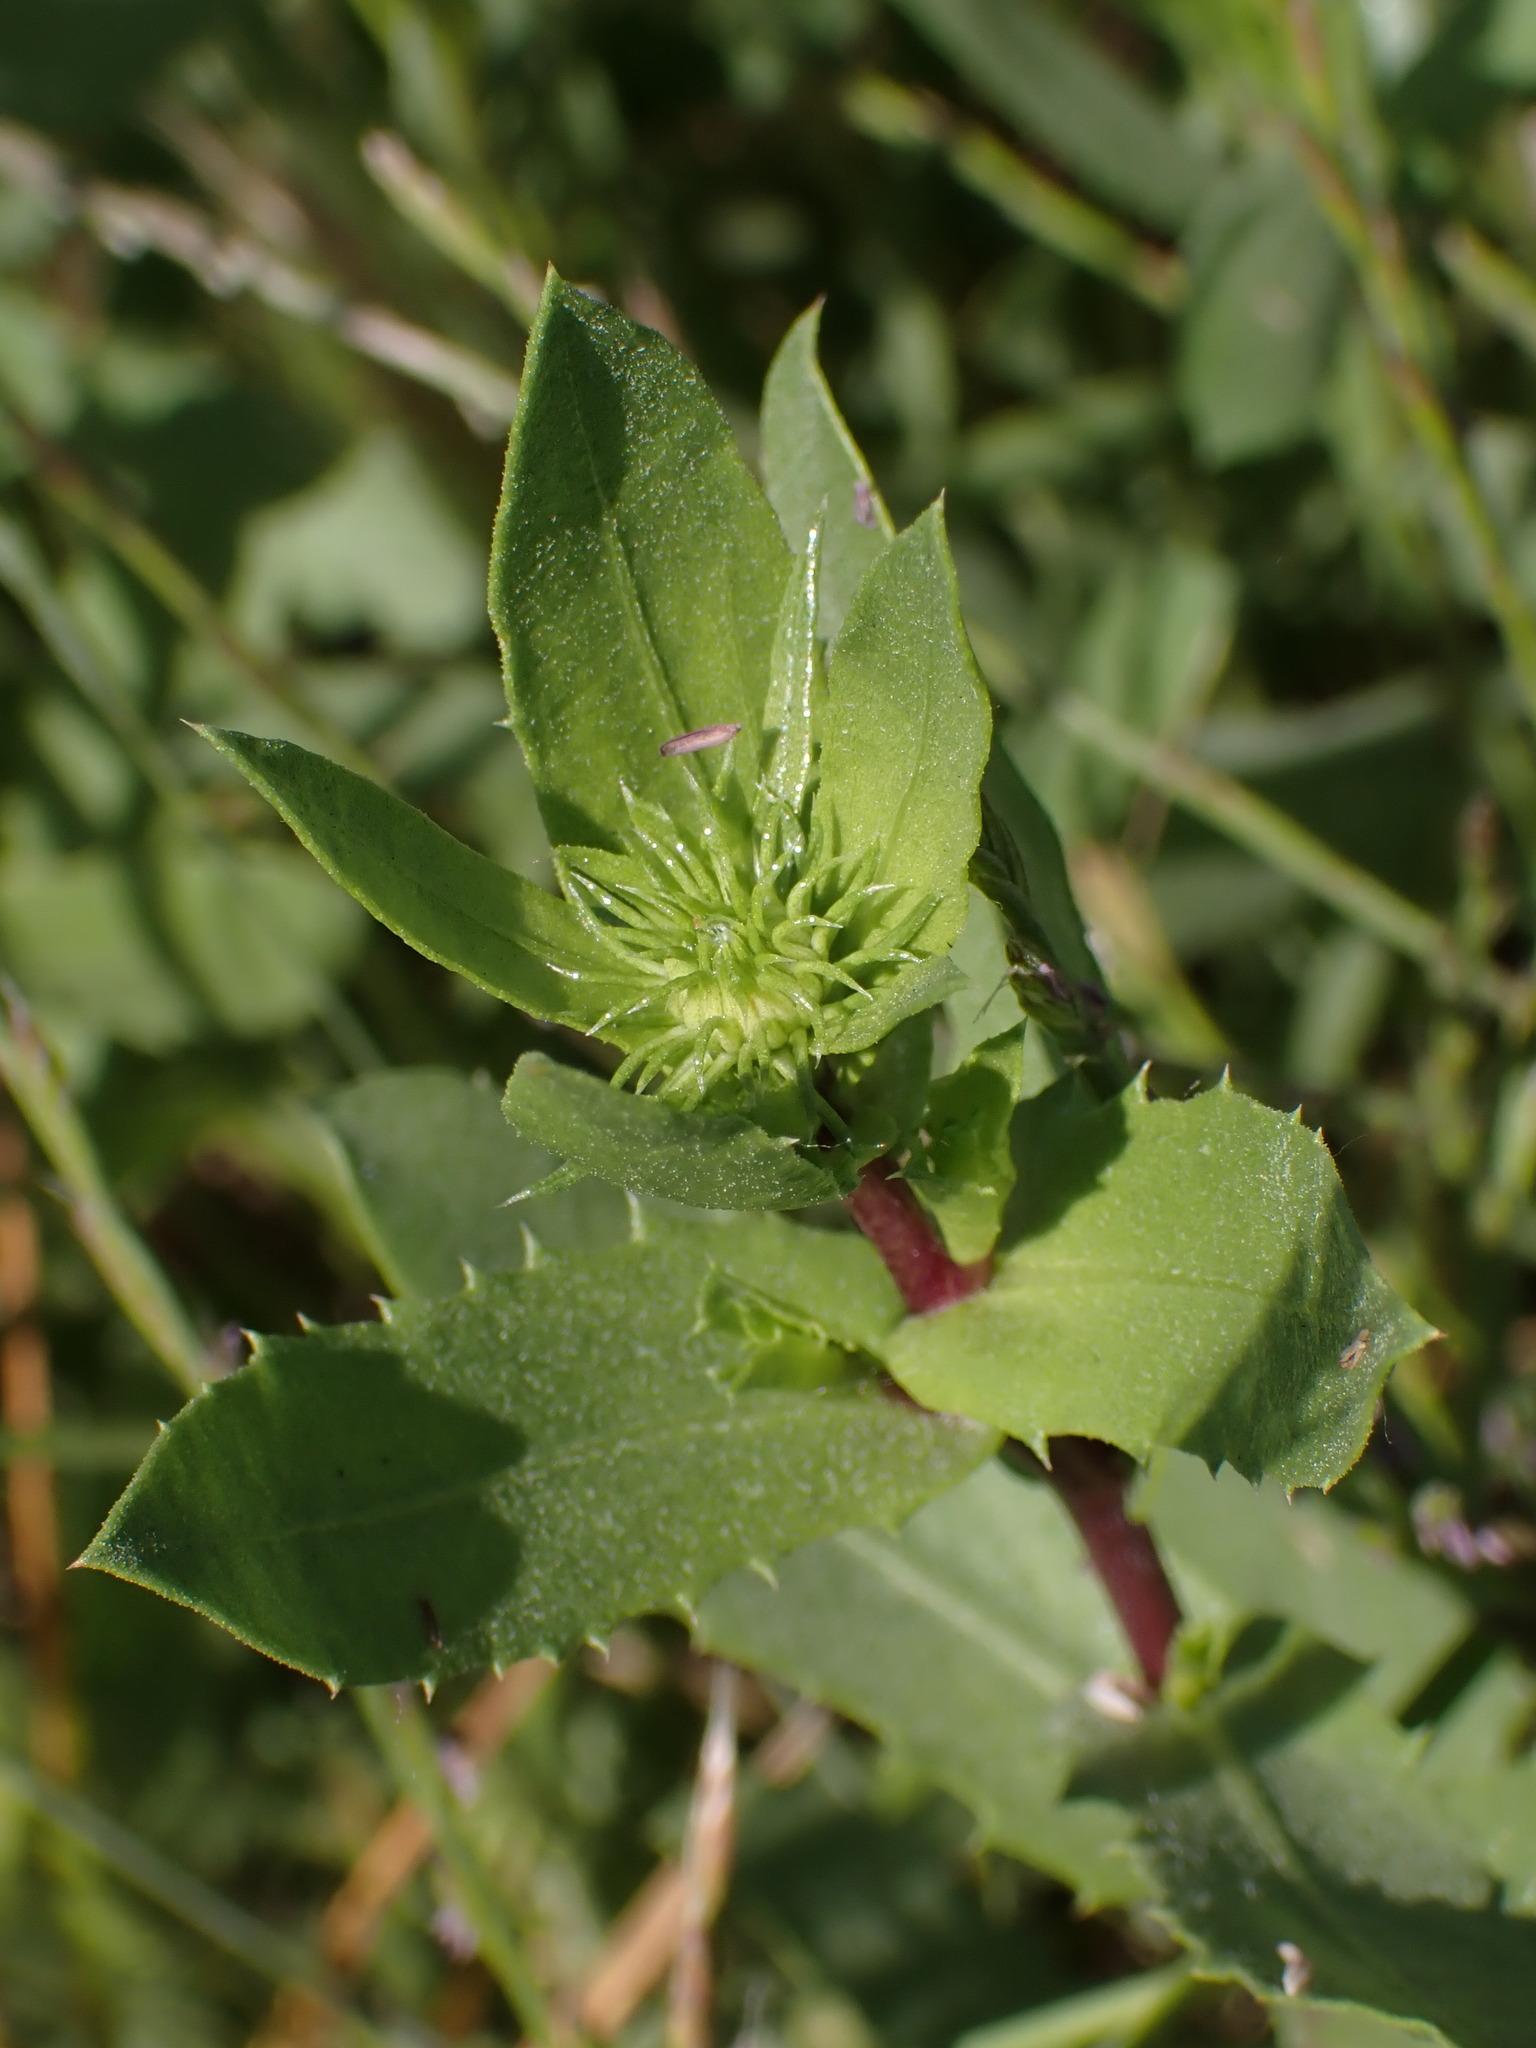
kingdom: Plantae
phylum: Tracheophyta
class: Magnoliopsida
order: Asterales
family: Asteraceae
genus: Grindelia
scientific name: Grindelia hirsutula
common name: Hairy gumweed
